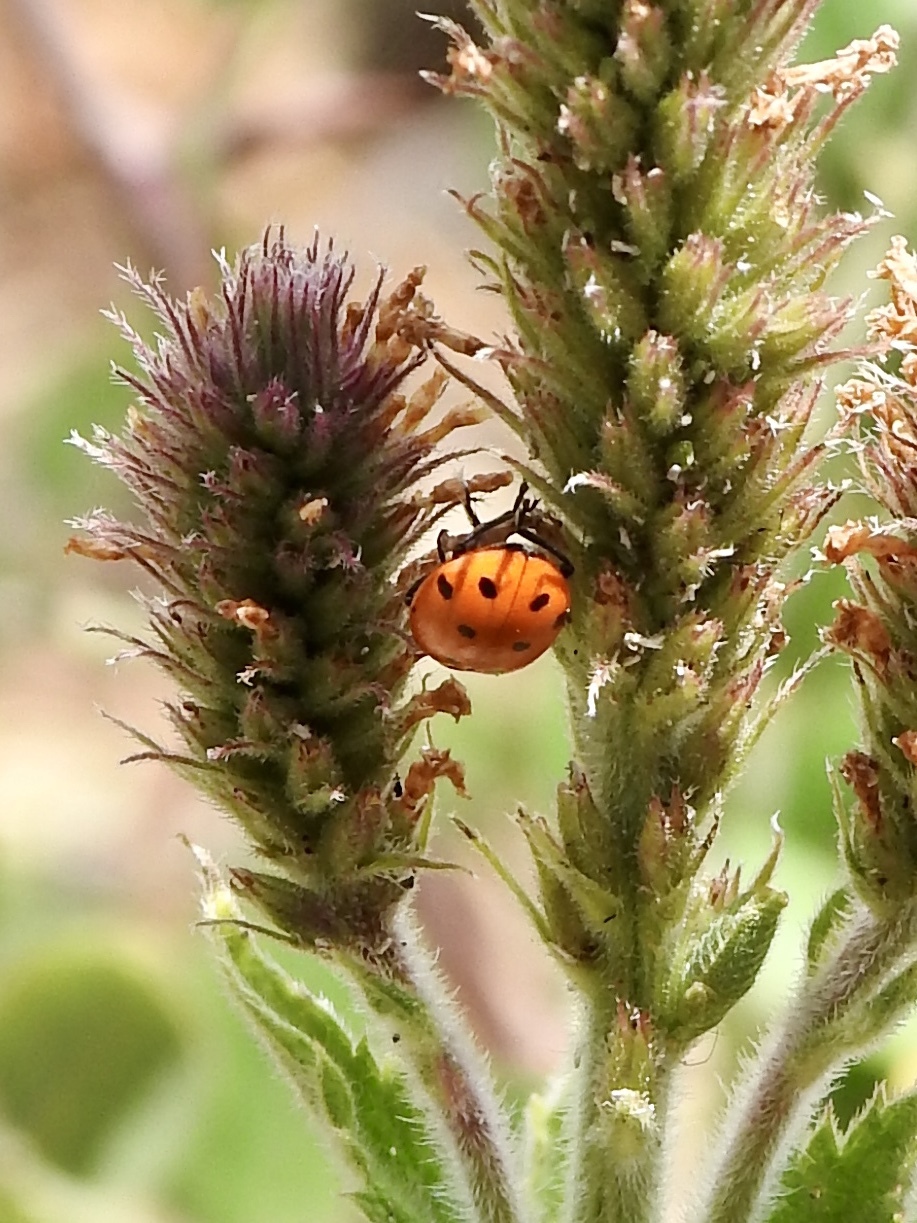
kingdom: Animalia
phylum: Arthropoda
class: Insecta
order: Coleoptera
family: Coccinellidae
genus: Hippodamia
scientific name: Hippodamia convergens
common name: Convergent lady beetle
